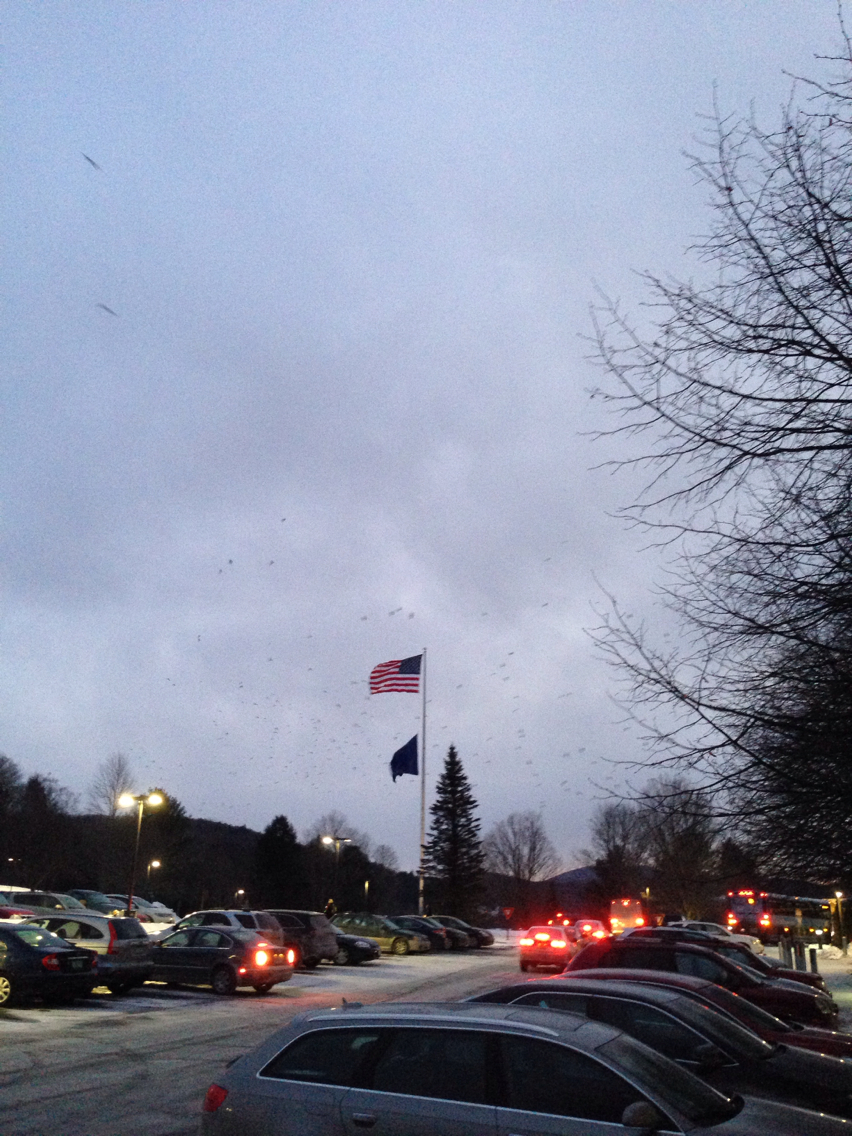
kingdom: Animalia
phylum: Chordata
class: Aves
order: Passeriformes
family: Corvidae
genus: Corvus
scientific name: Corvus brachyrhynchos
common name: American crow
